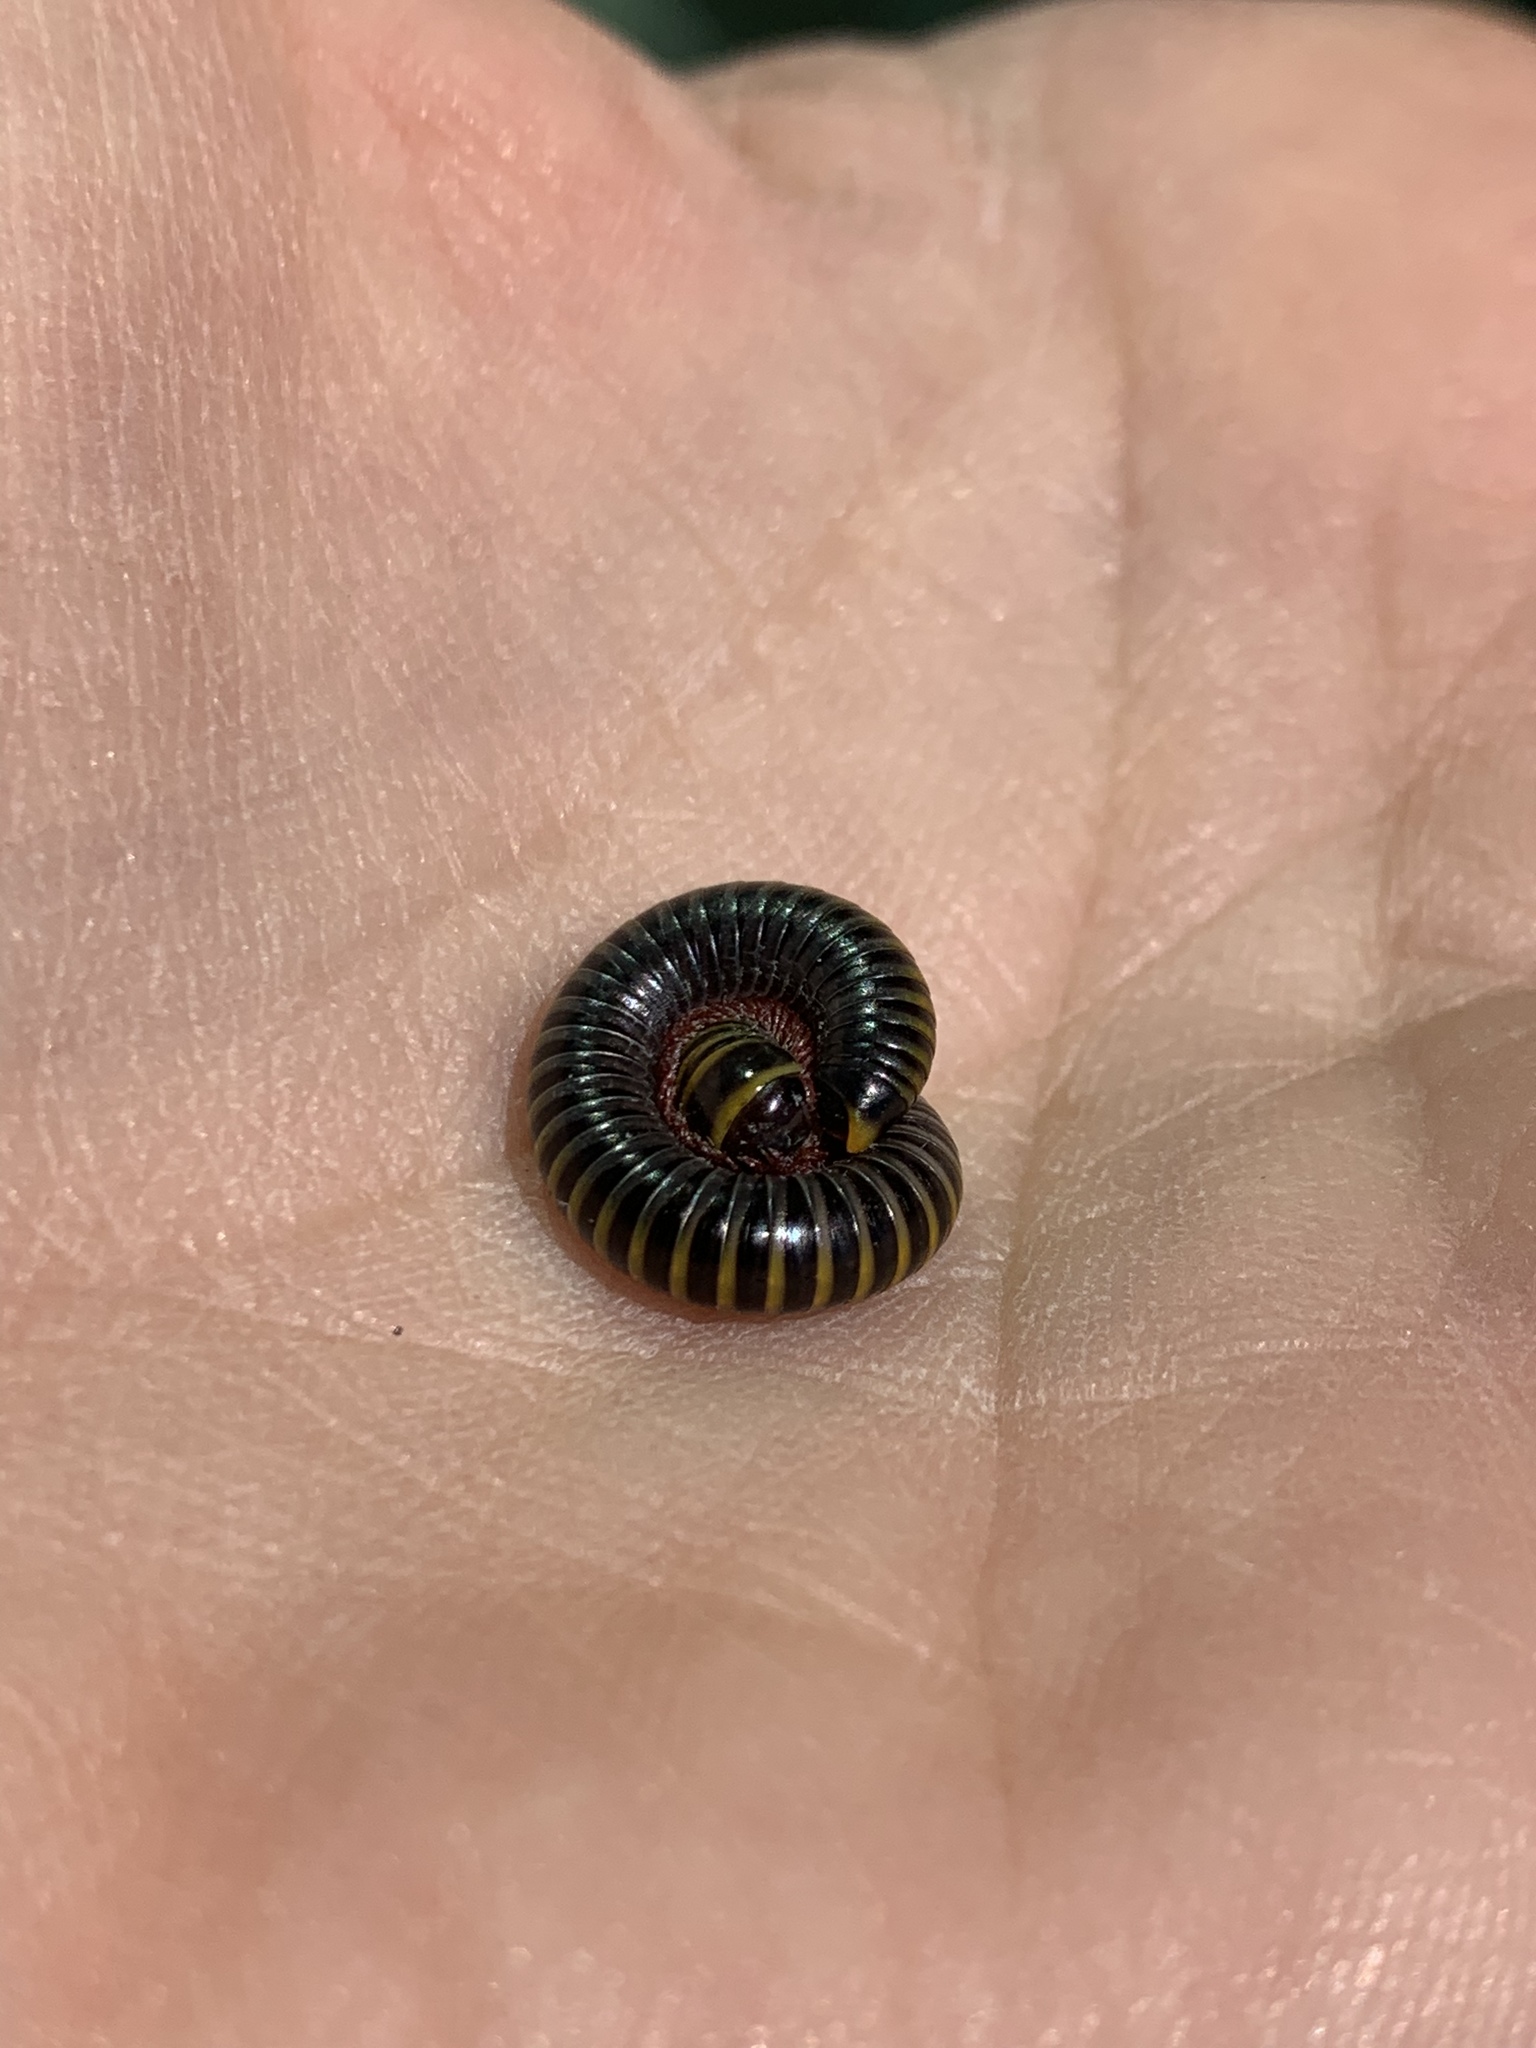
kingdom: Animalia
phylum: Arthropoda
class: Diplopoda
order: Spirobolida
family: Rhinocricidae
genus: Anadenobolus
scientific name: Anadenobolus monilicornis
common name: Caribbean millipede
